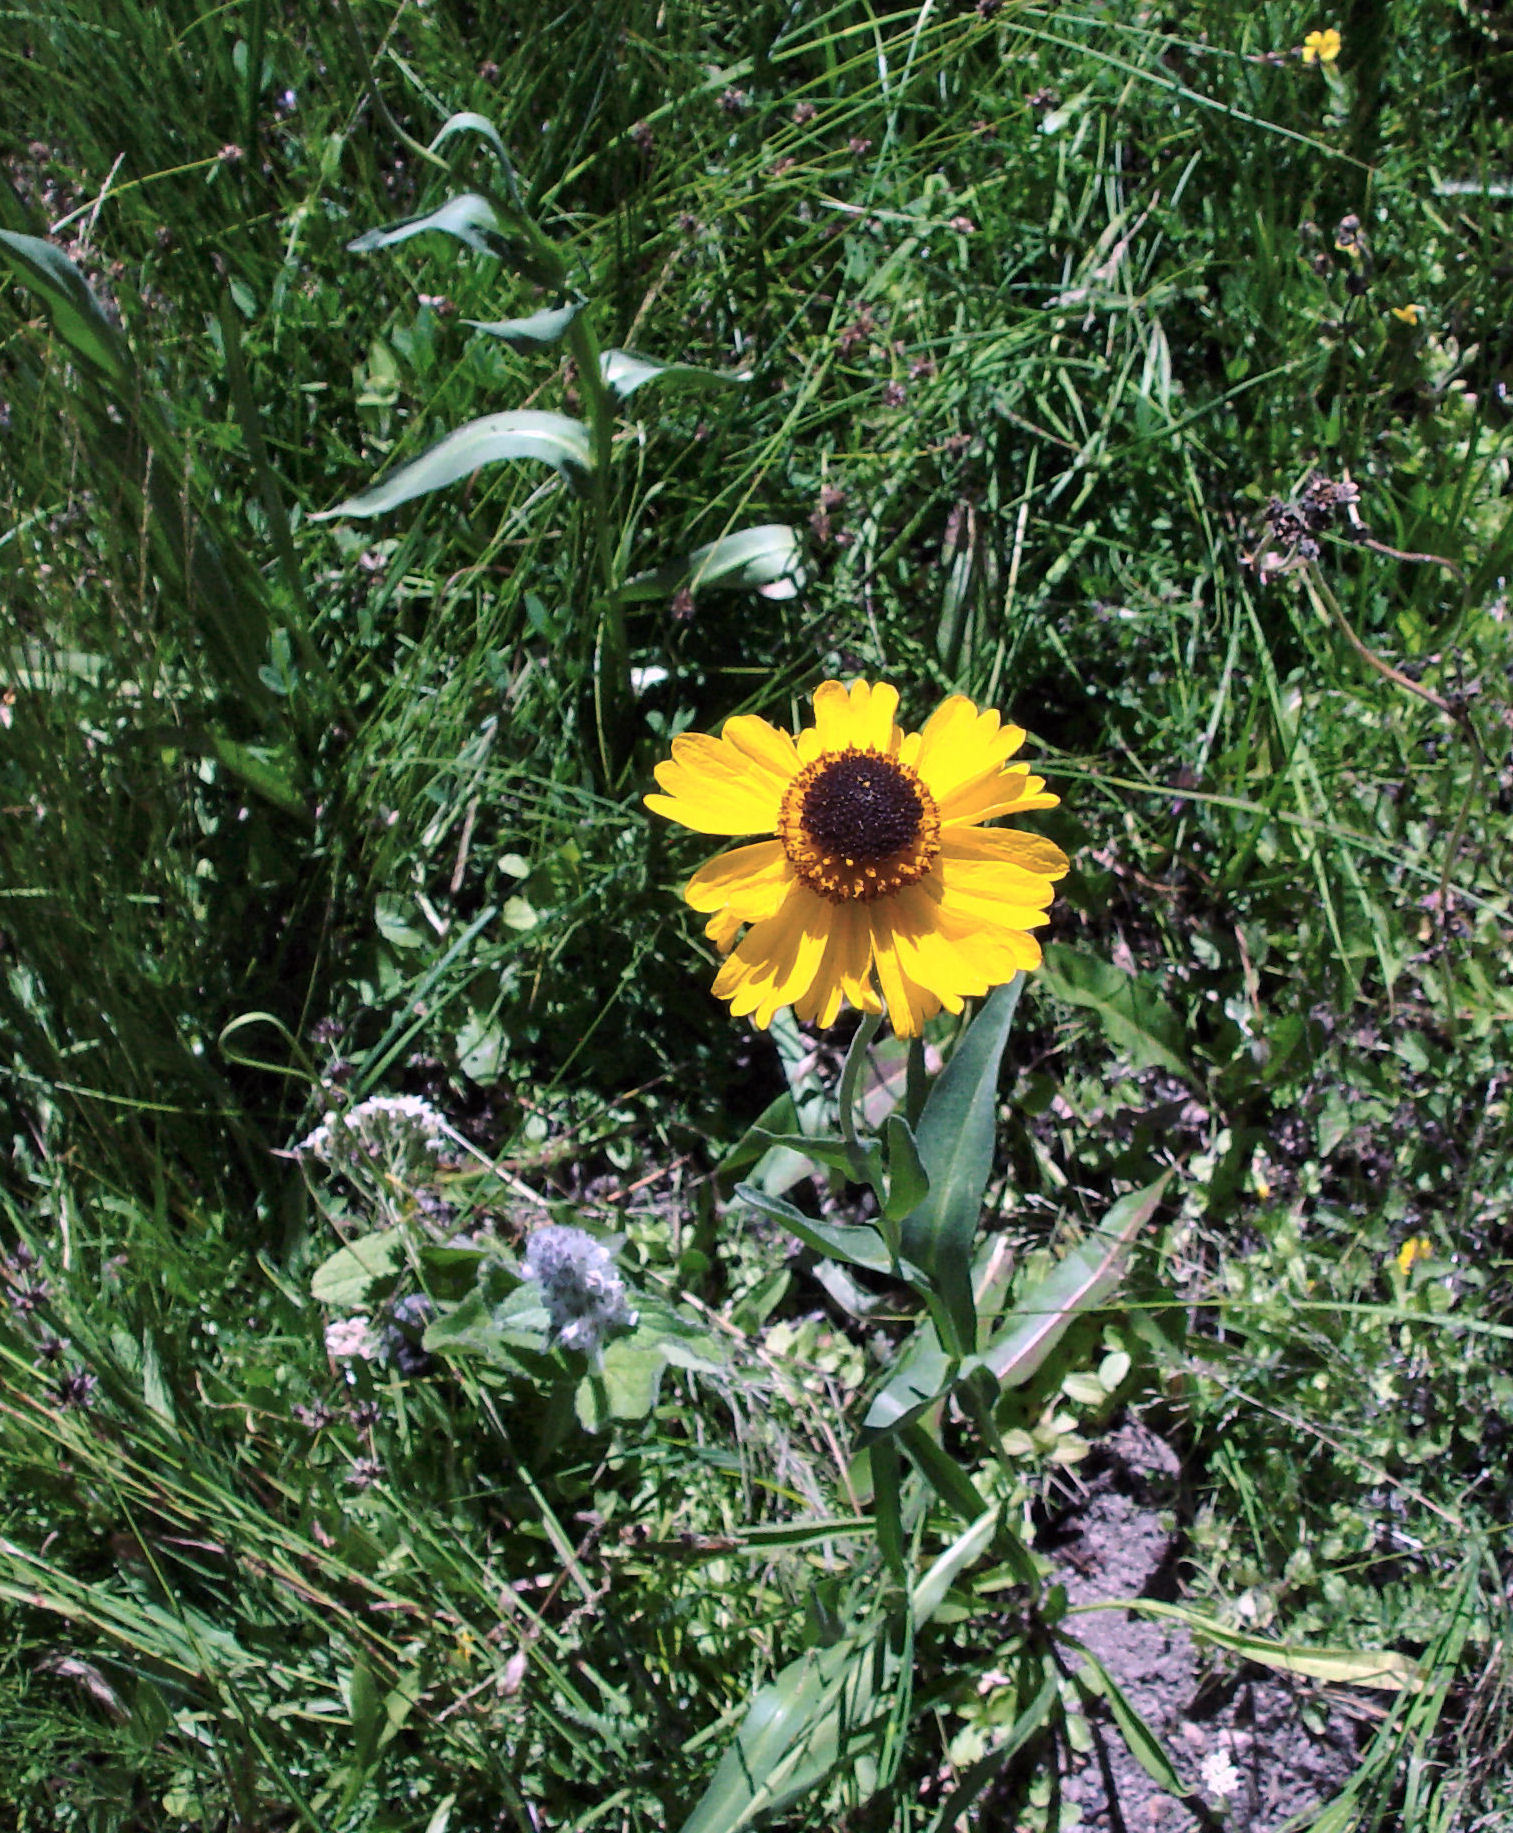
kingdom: Plantae
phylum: Tracheophyta
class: Magnoliopsida
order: Asterales
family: Asteraceae
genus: Helenium
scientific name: Helenium bigelovii
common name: Bigelow's sneezeweed
